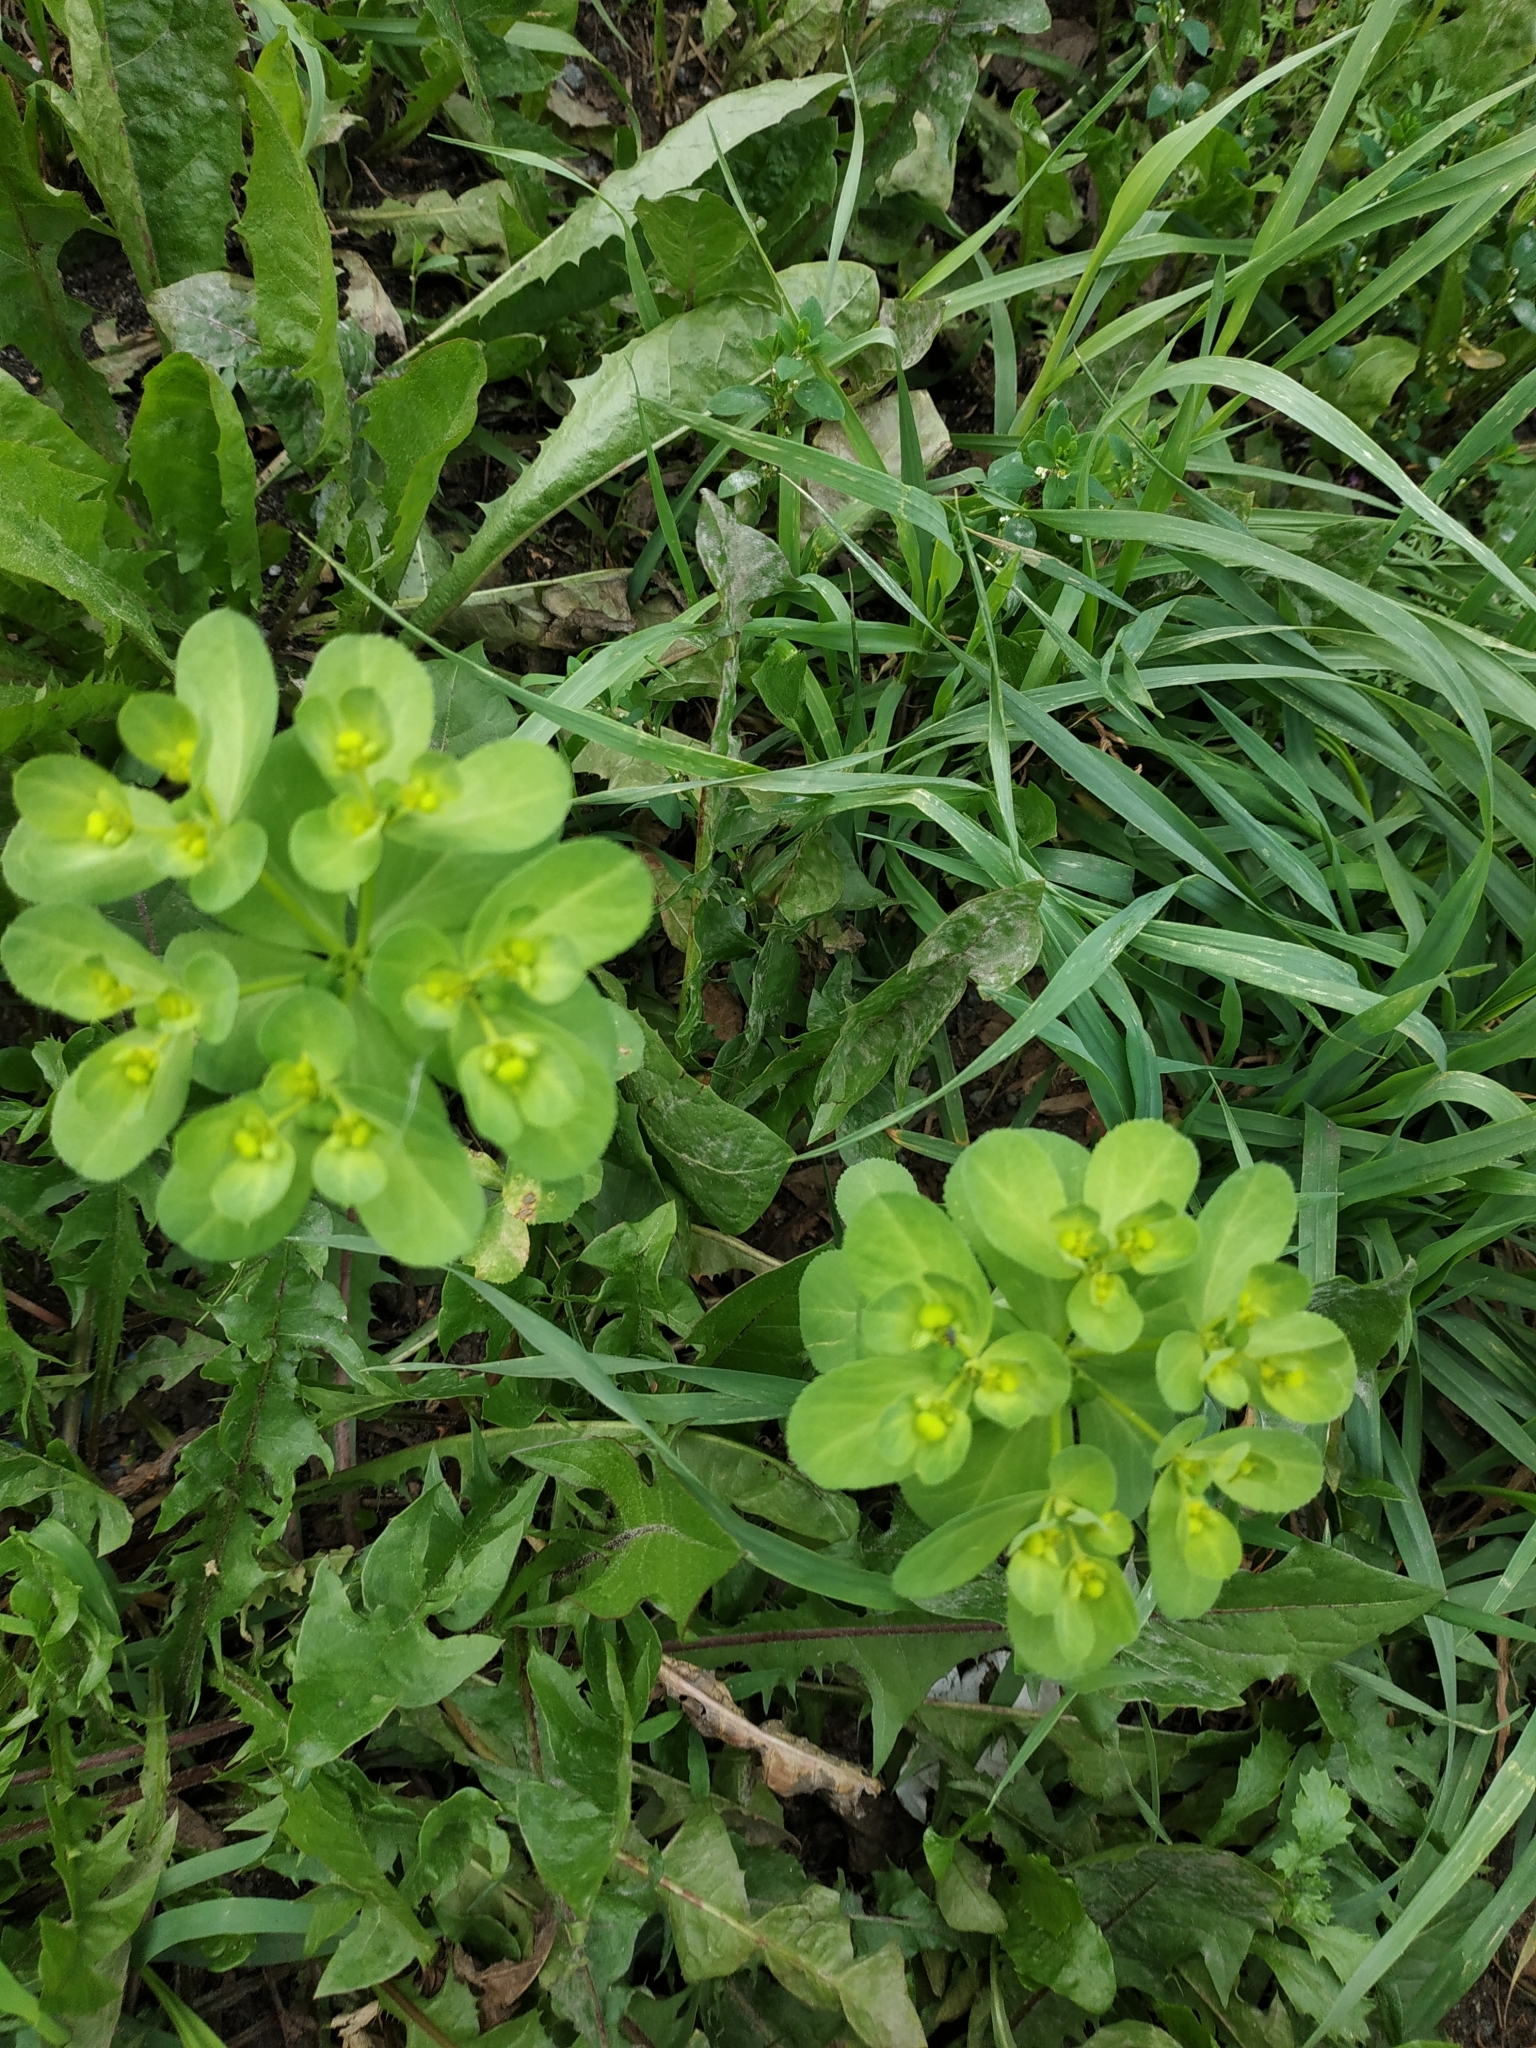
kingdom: Plantae
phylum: Tracheophyta
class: Magnoliopsida
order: Malpighiales
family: Euphorbiaceae
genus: Euphorbia
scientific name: Euphorbia helioscopia
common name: Sun spurge
